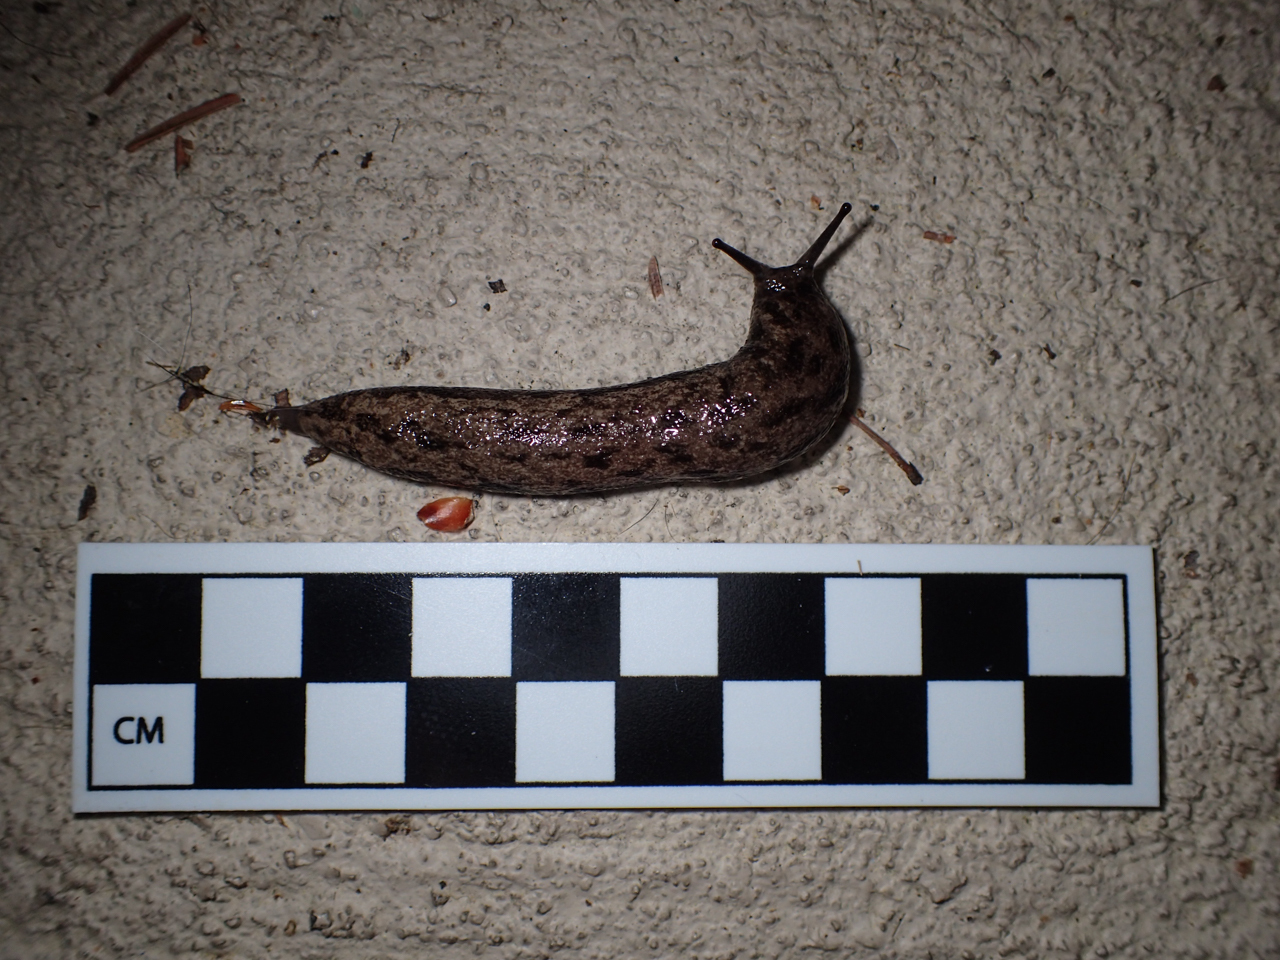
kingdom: Animalia
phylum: Mollusca
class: Gastropoda
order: Stylommatophora
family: Philomycidae
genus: Megapallifera
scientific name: Megapallifera mutabilis
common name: Changeable mantleslug
